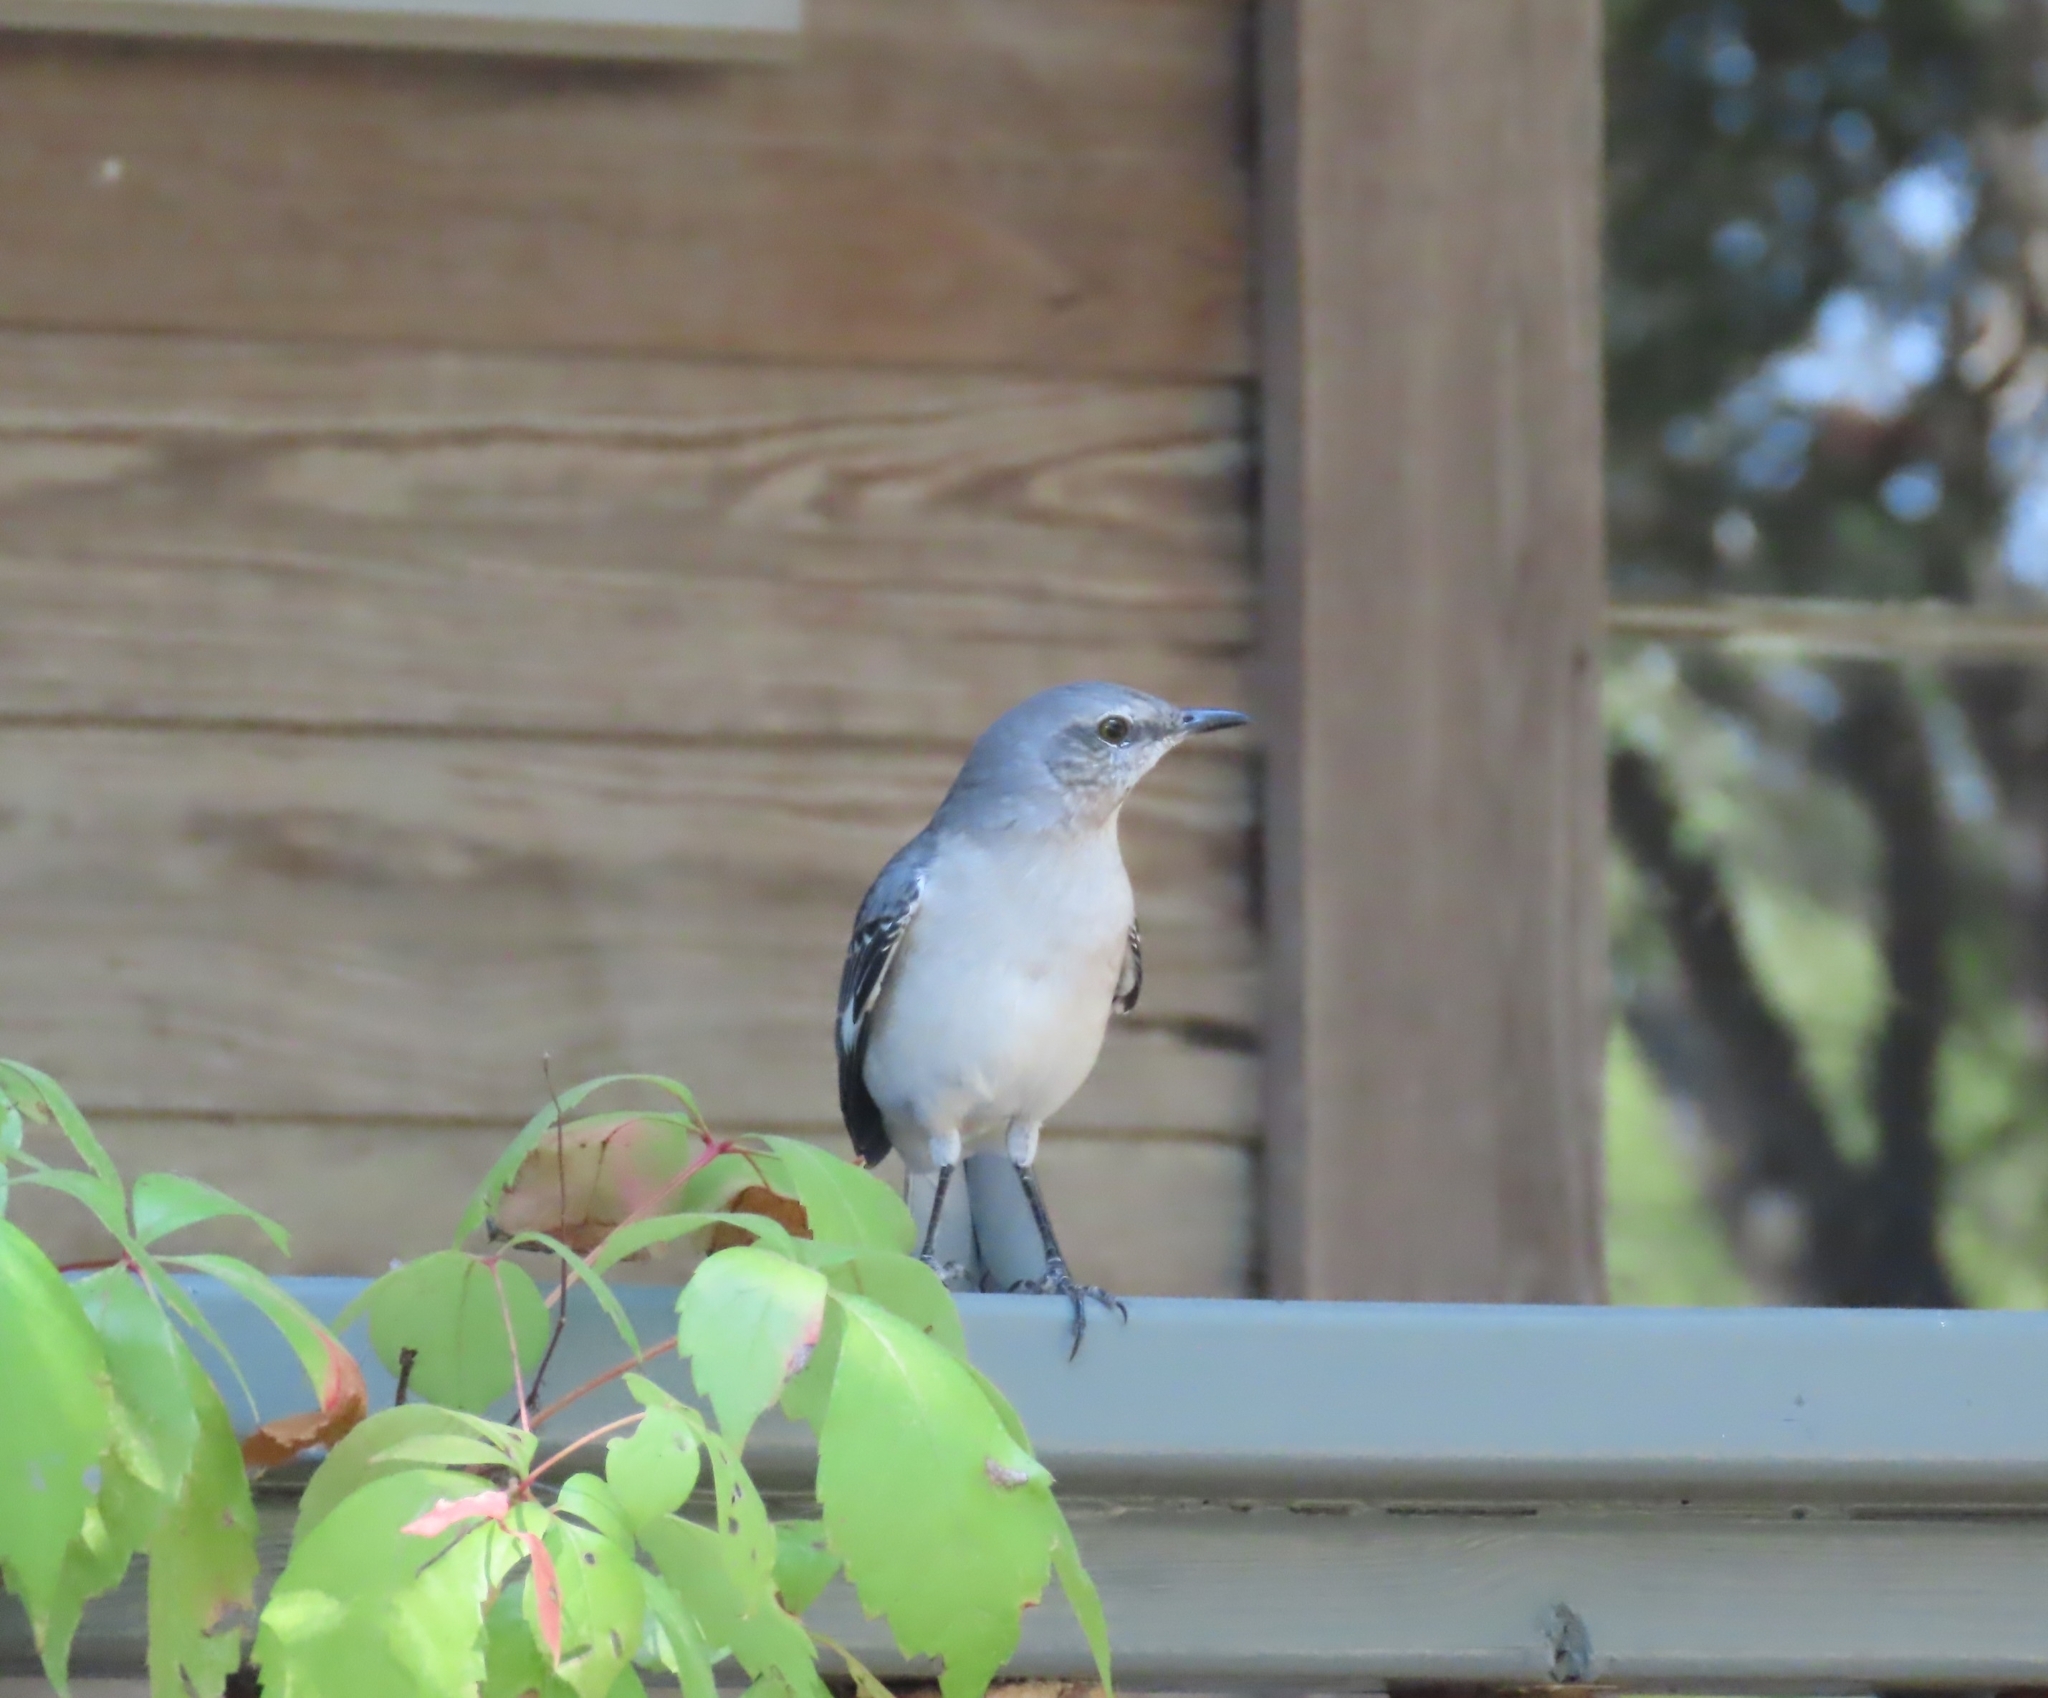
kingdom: Animalia
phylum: Chordata
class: Aves
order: Passeriformes
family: Mimidae
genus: Mimus
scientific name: Mimus polyglottos
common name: Northern mockingbird
